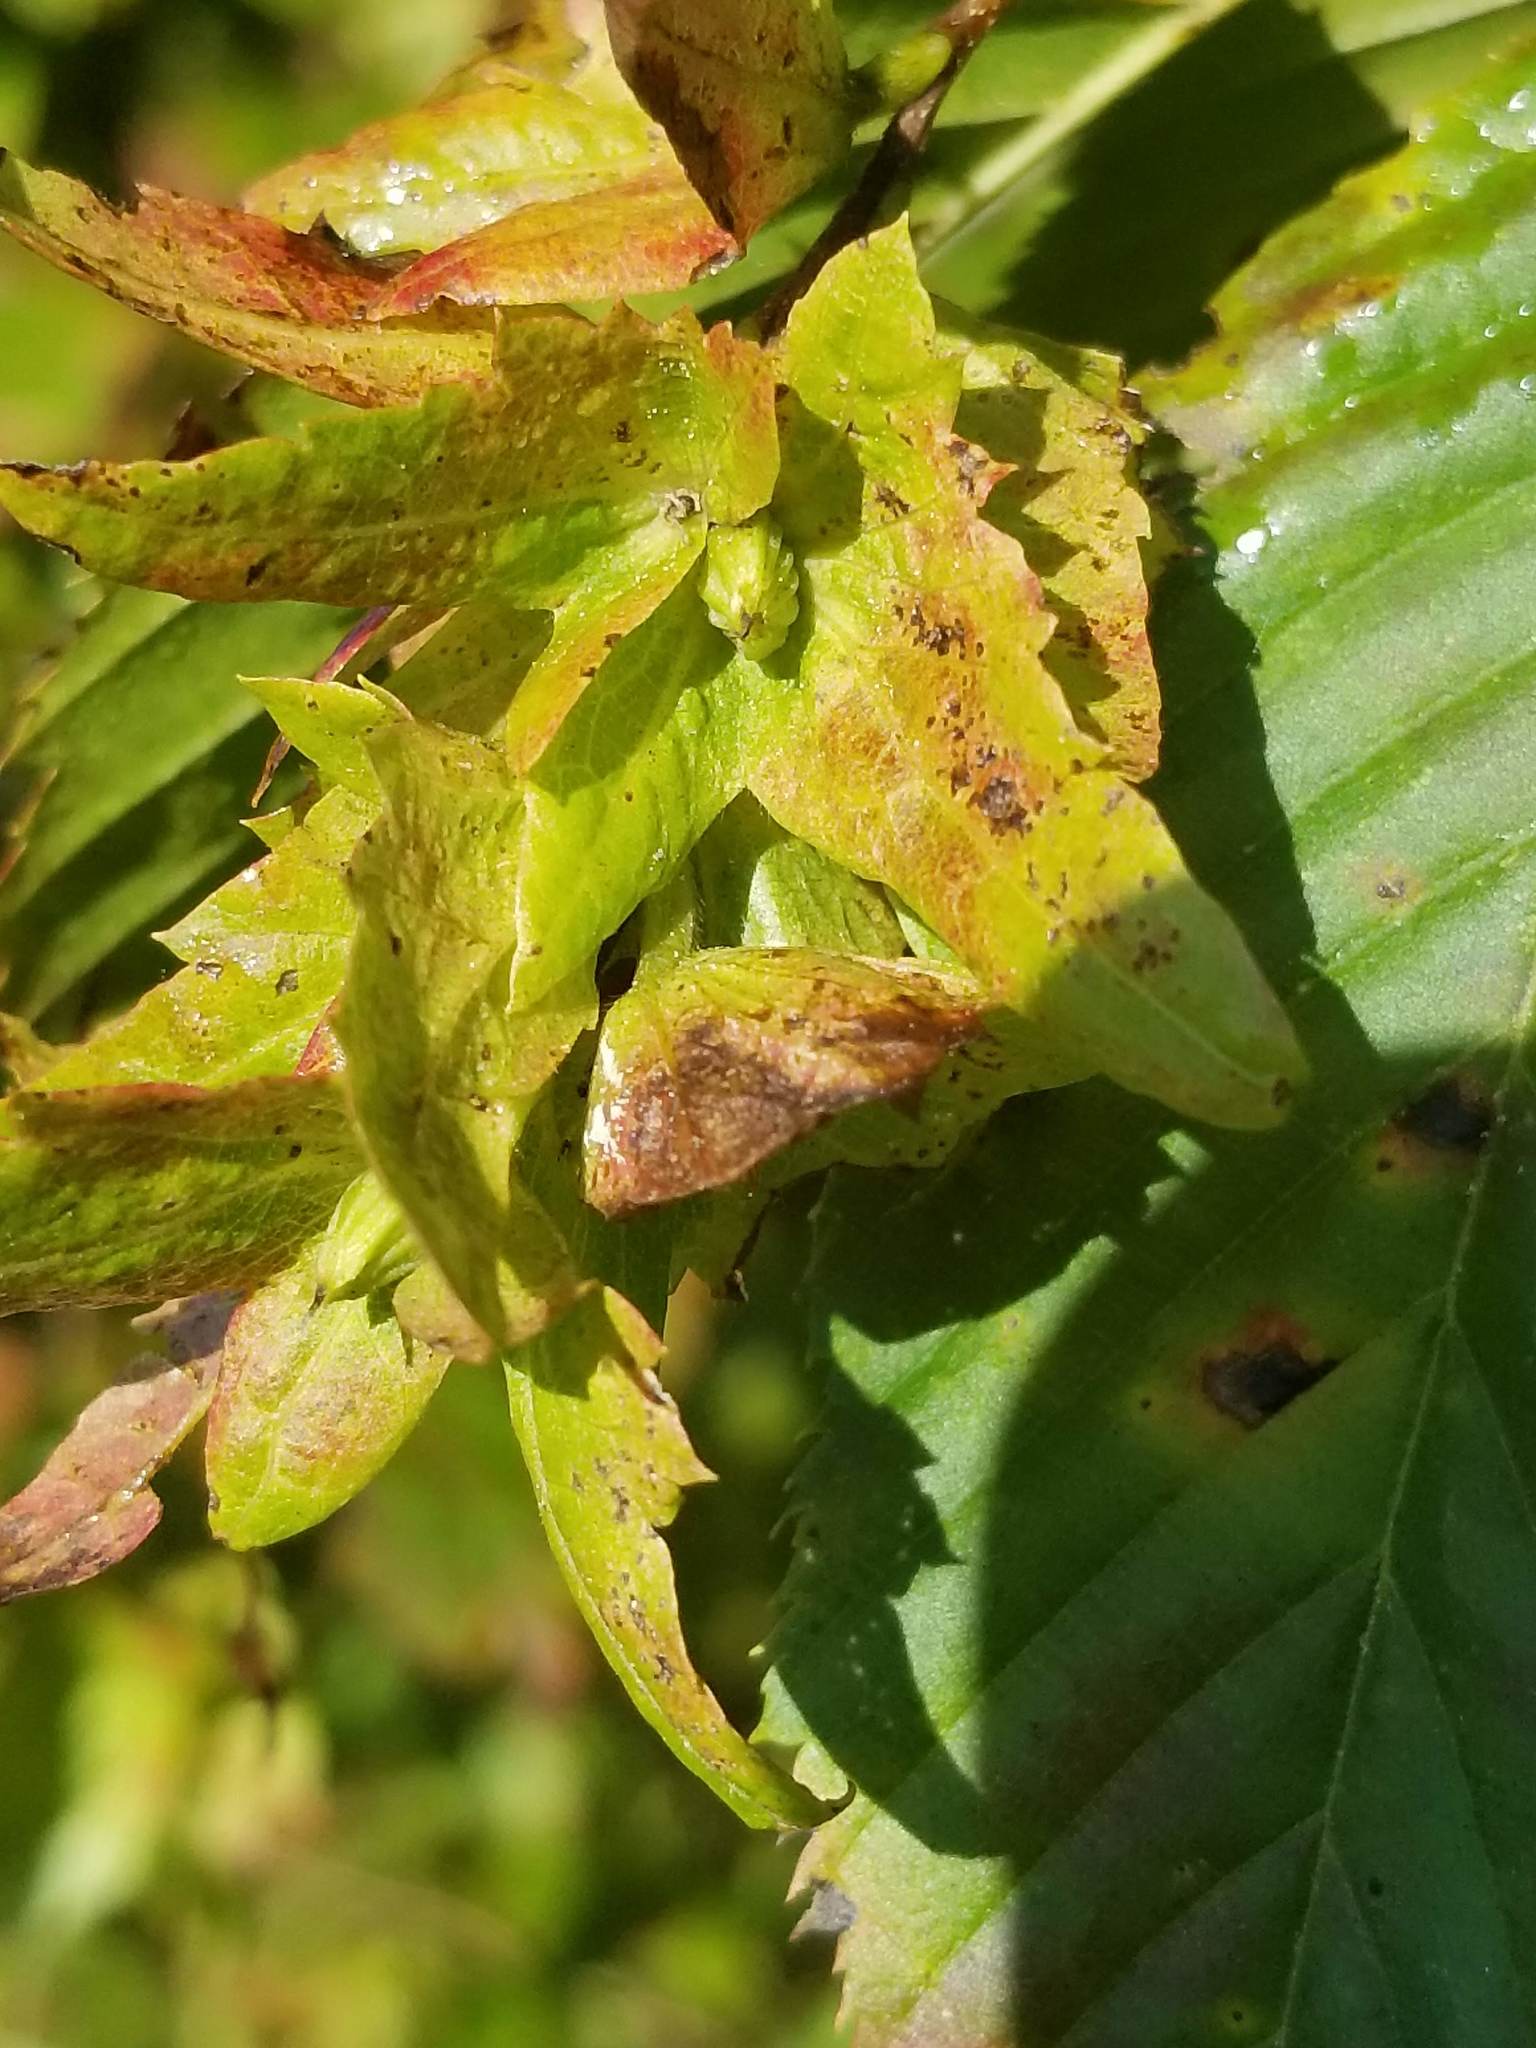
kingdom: Plantae
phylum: Tracheophyta
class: Magnoliopsida
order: Fagales
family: Betulaceae
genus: Carpinus
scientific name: Carpinus caroliniana
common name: American hornbeam
